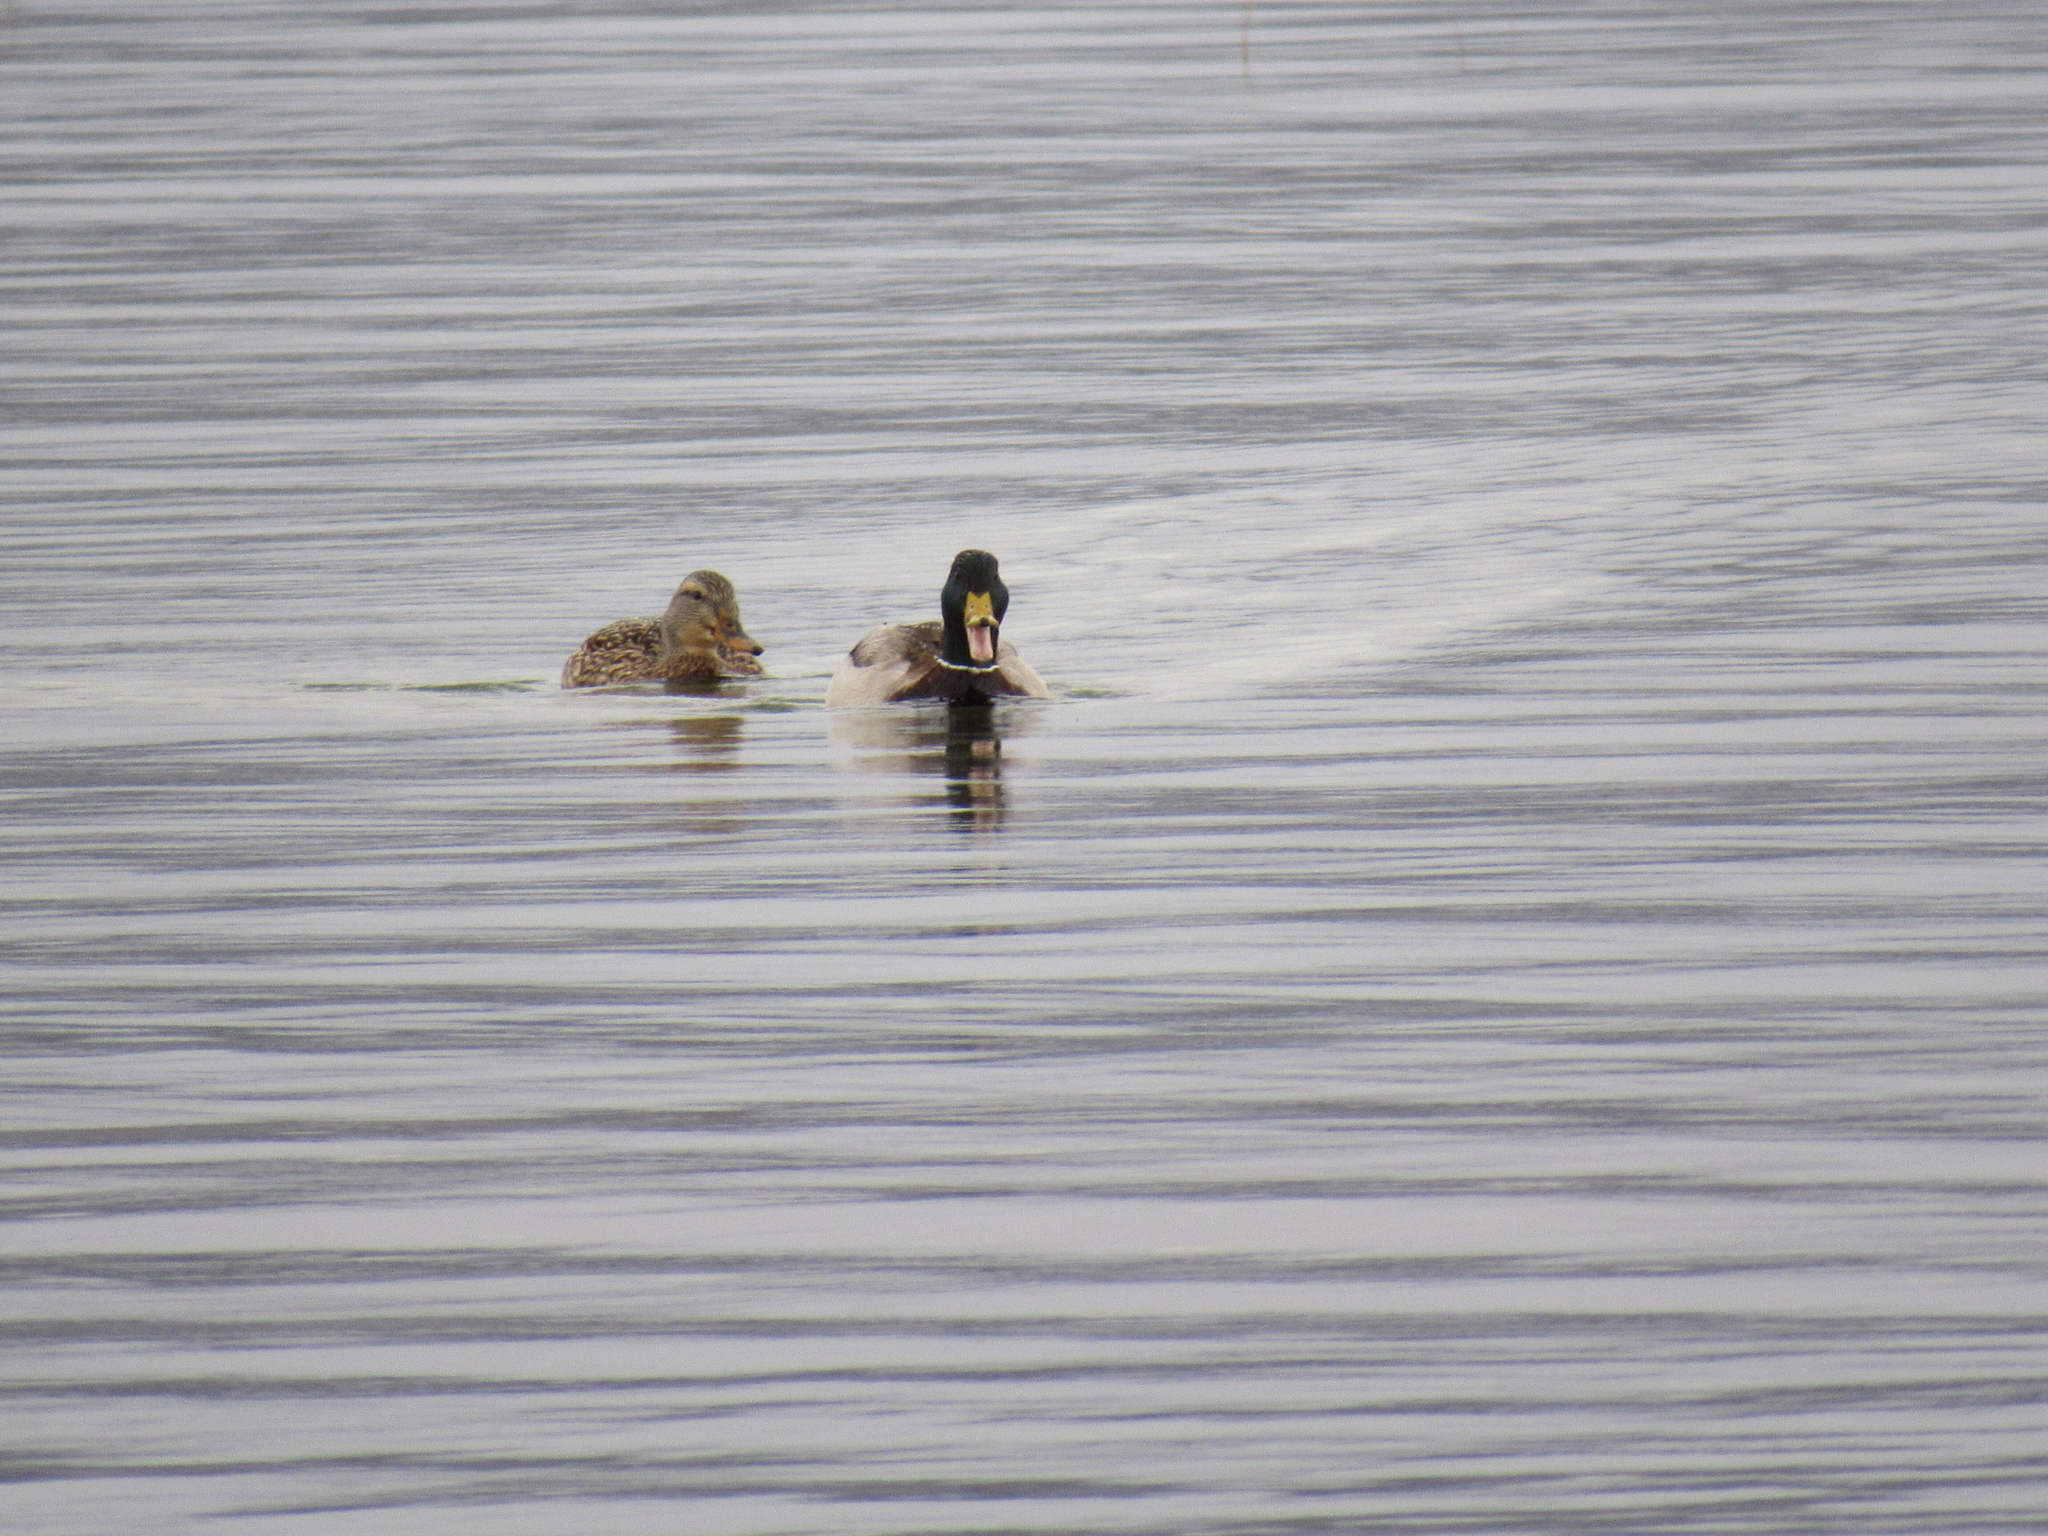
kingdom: Animalia
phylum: Chordata
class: Aves
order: Anseriformes
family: Anatidae
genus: Anas
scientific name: Anas platyrhynchos
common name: Mallard
